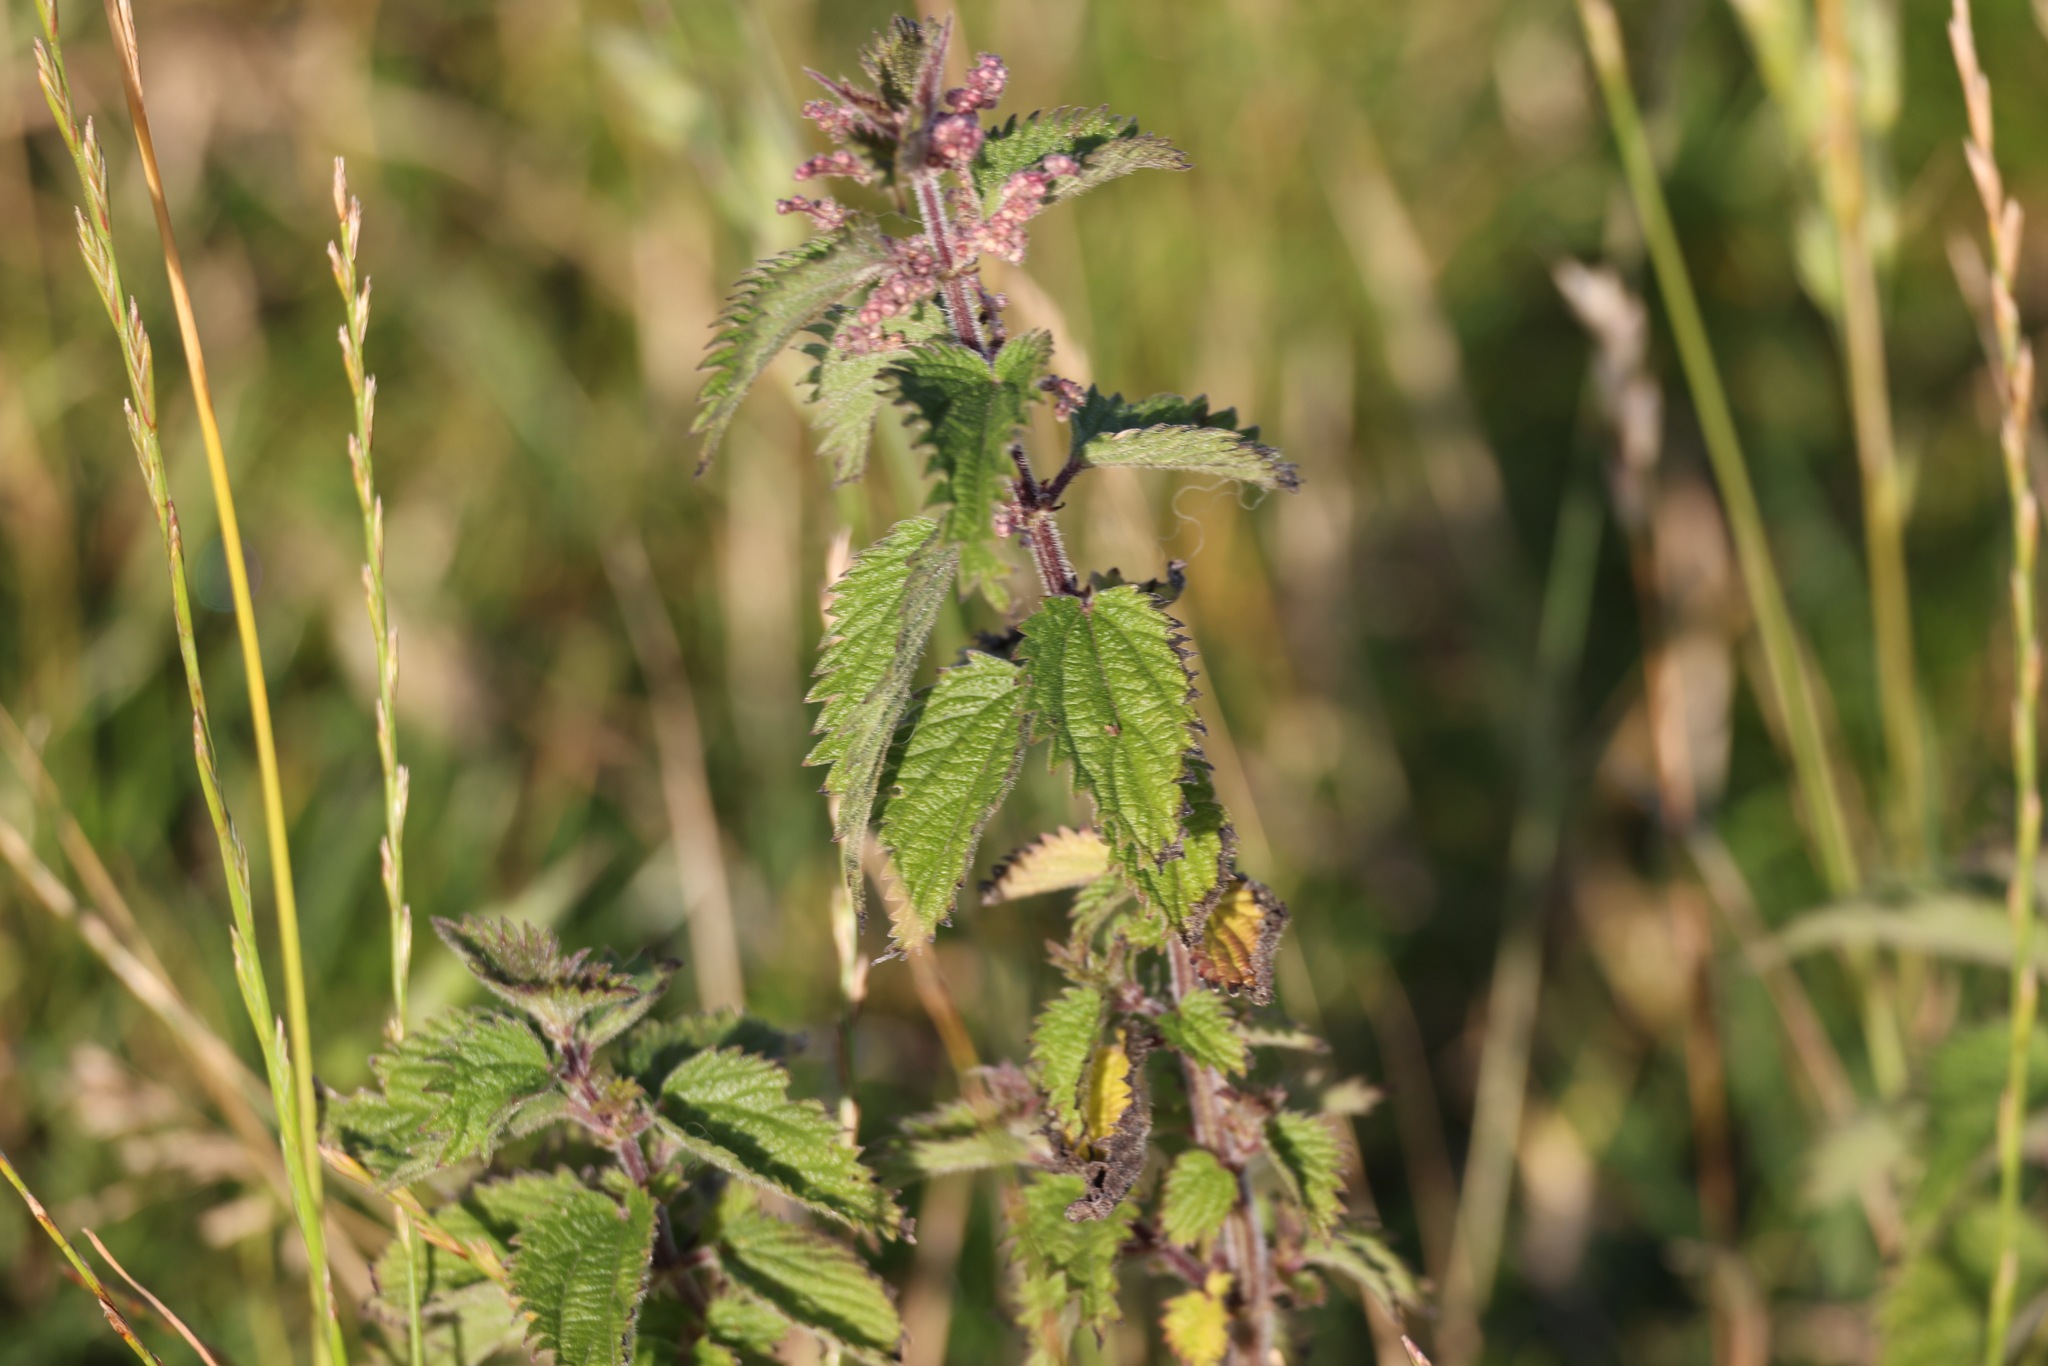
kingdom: Plantae
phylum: Tracheophyta
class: Magnoliopsida
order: Rosales
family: Urticaceae
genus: Urtica
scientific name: Urtica dioica
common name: Common nettle
